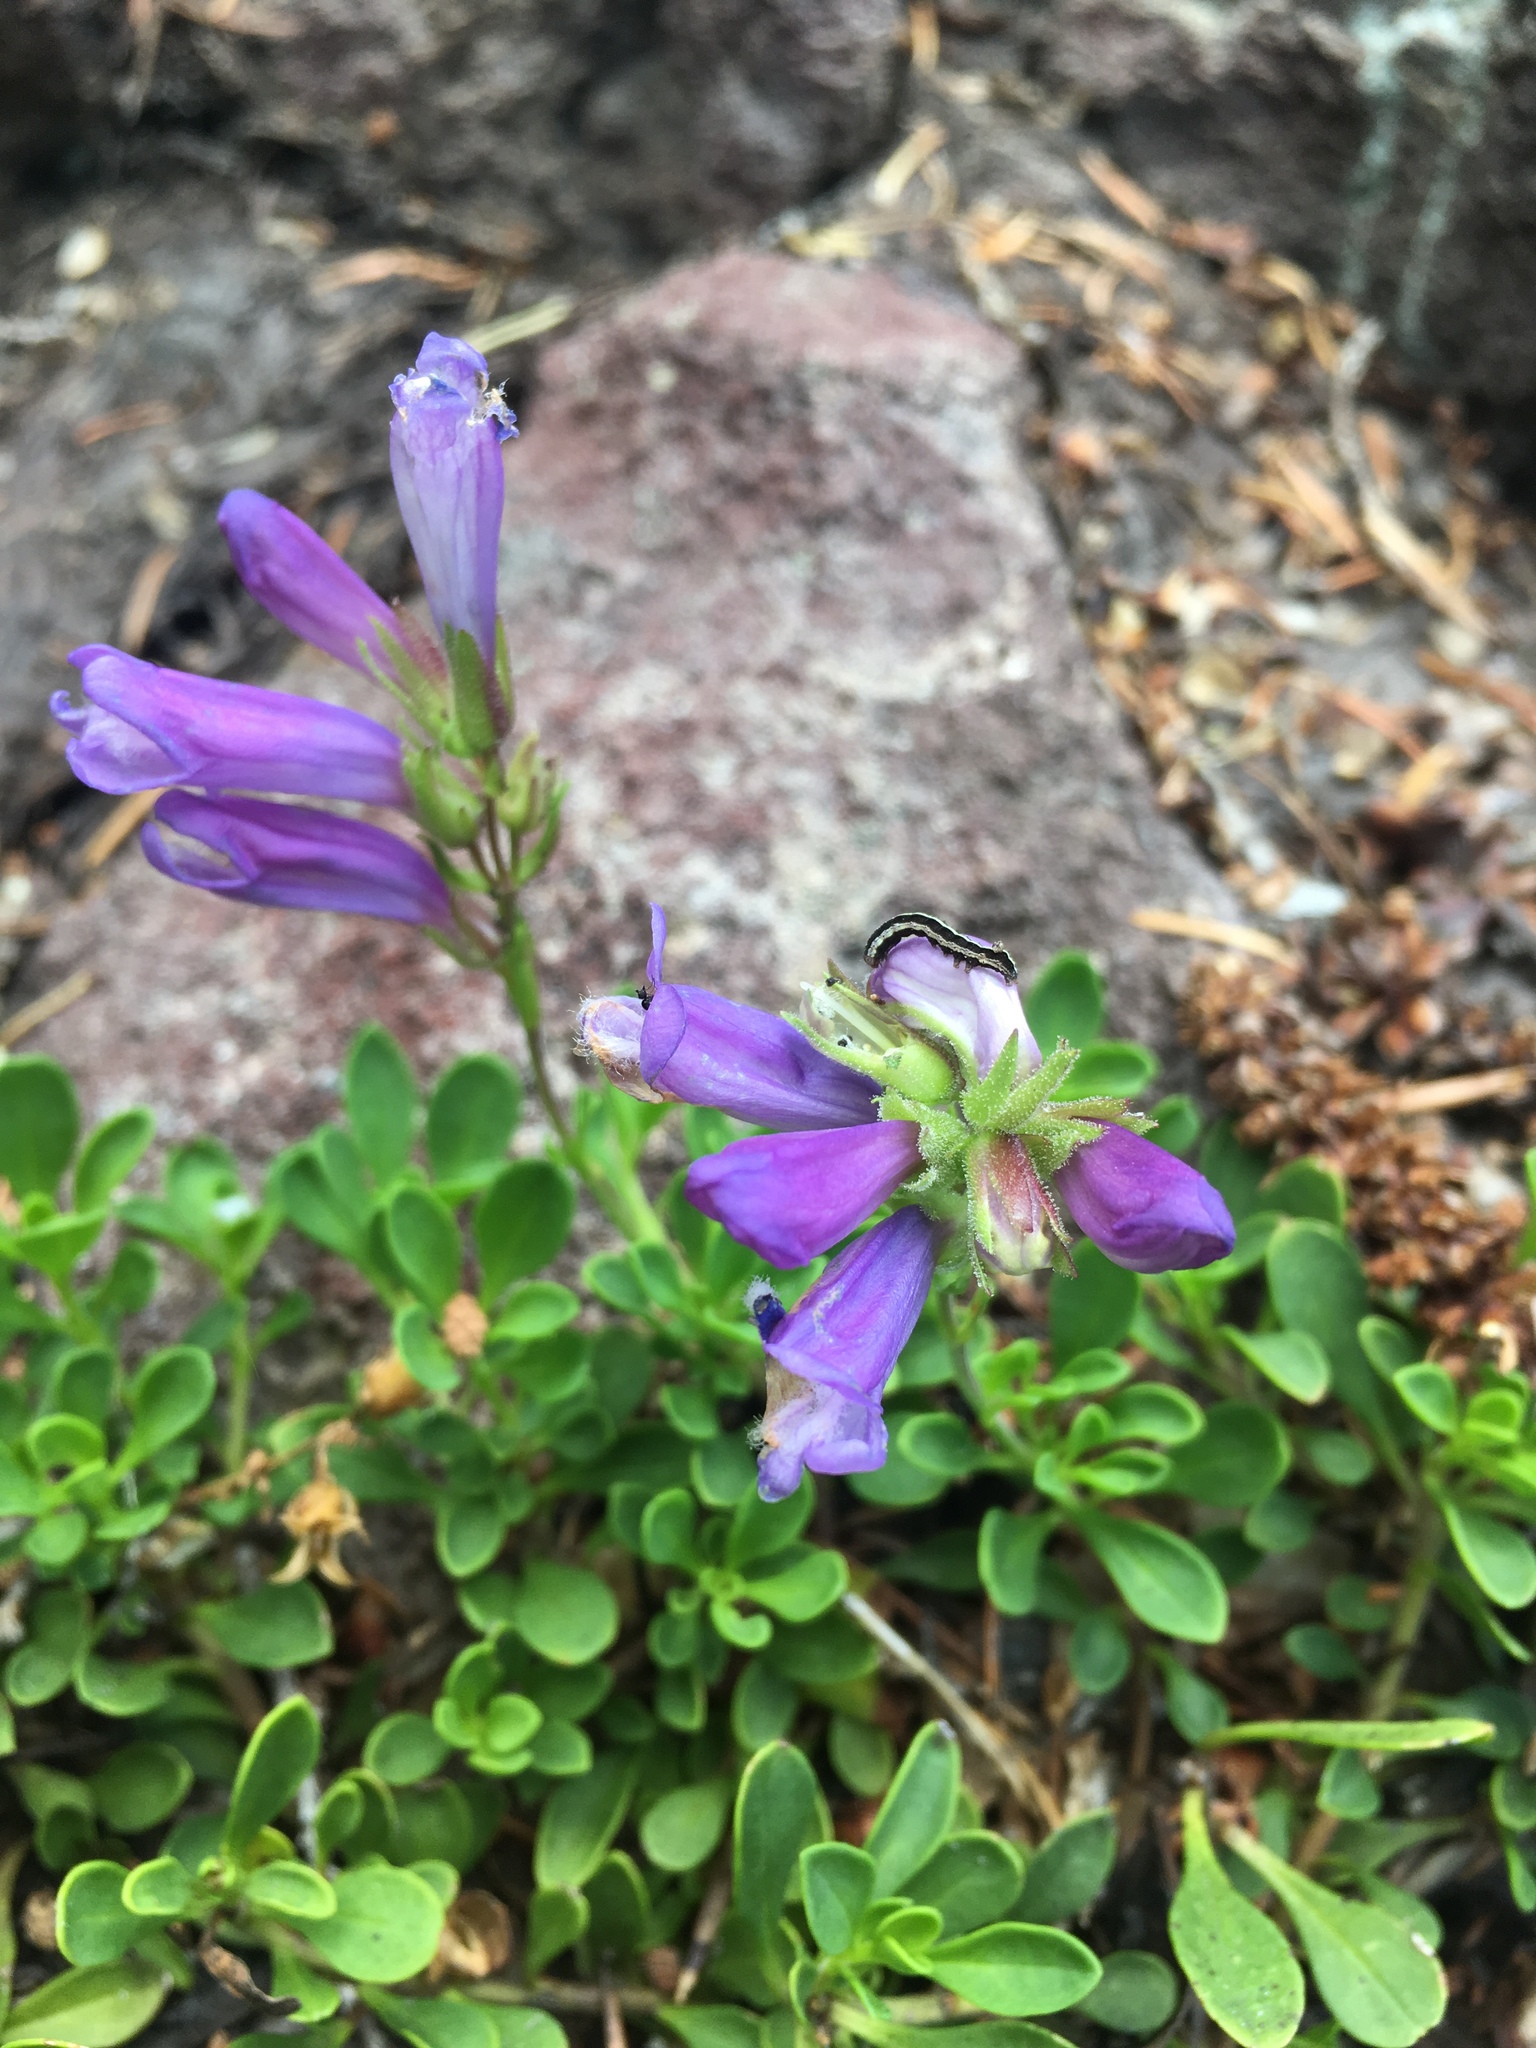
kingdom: Plantae
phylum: Tracheophyta
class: Magnoliopsida
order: Lamiales
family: Plantaginaceae
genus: Penstemon
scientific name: Penstemon davidsonii
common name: Davidson's penstemon
